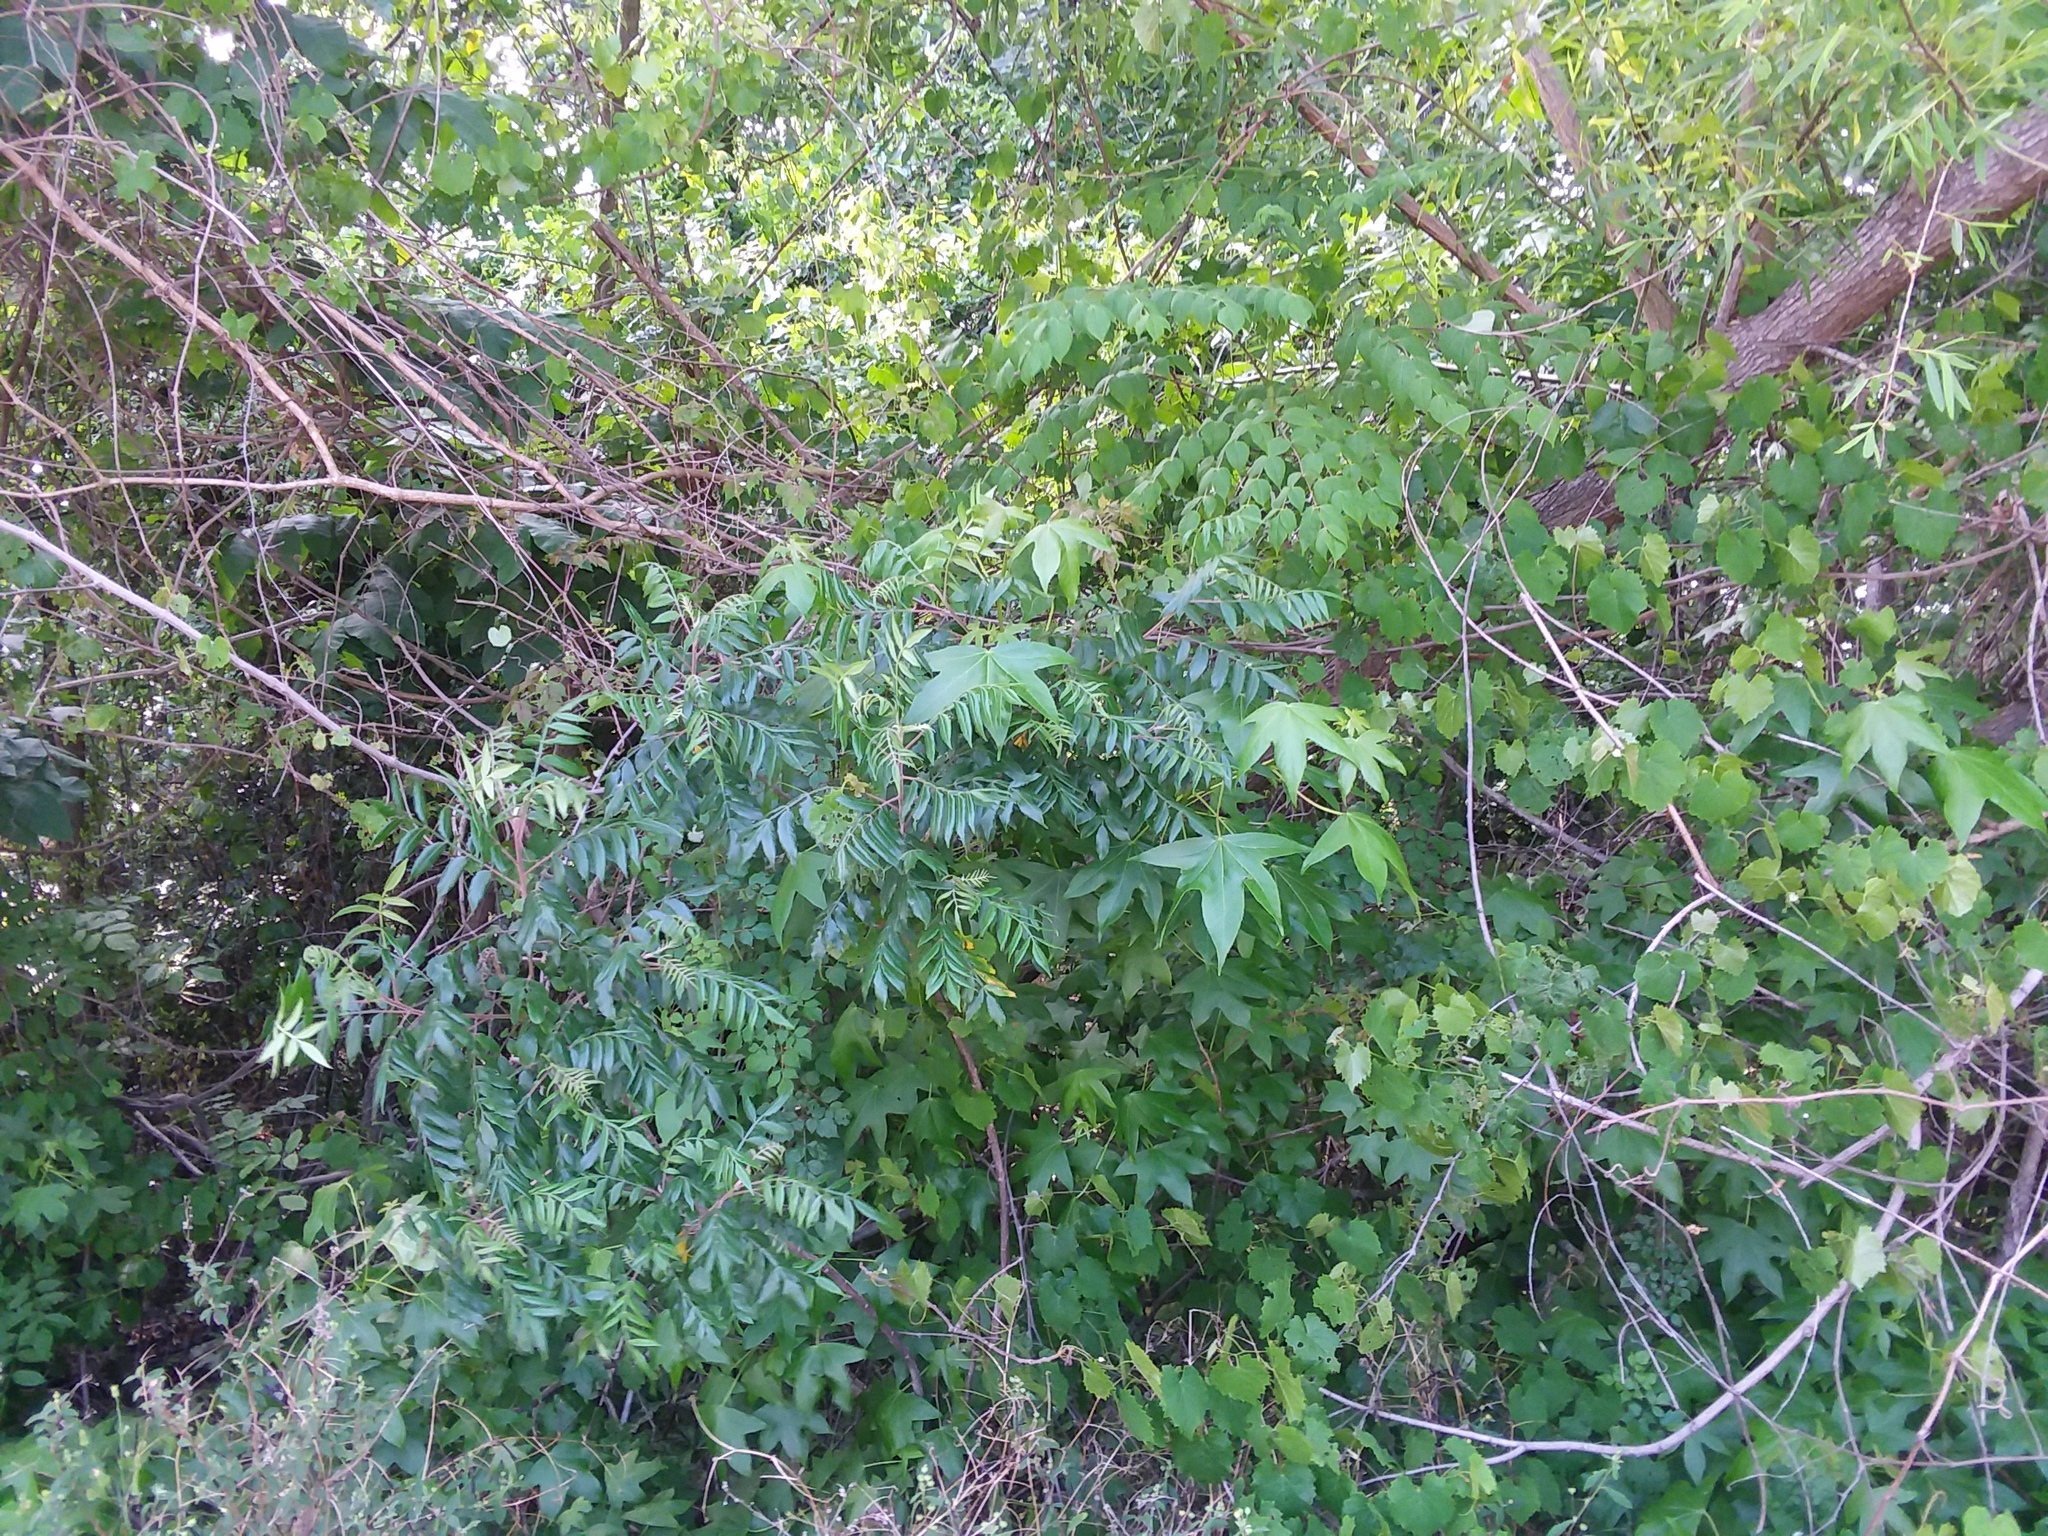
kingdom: Plantae
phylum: Tracheophyta
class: Magnoliopsida
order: Sapindales
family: Anacardiaceae
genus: Rhus
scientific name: Rhus copallina
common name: Shining sumac
